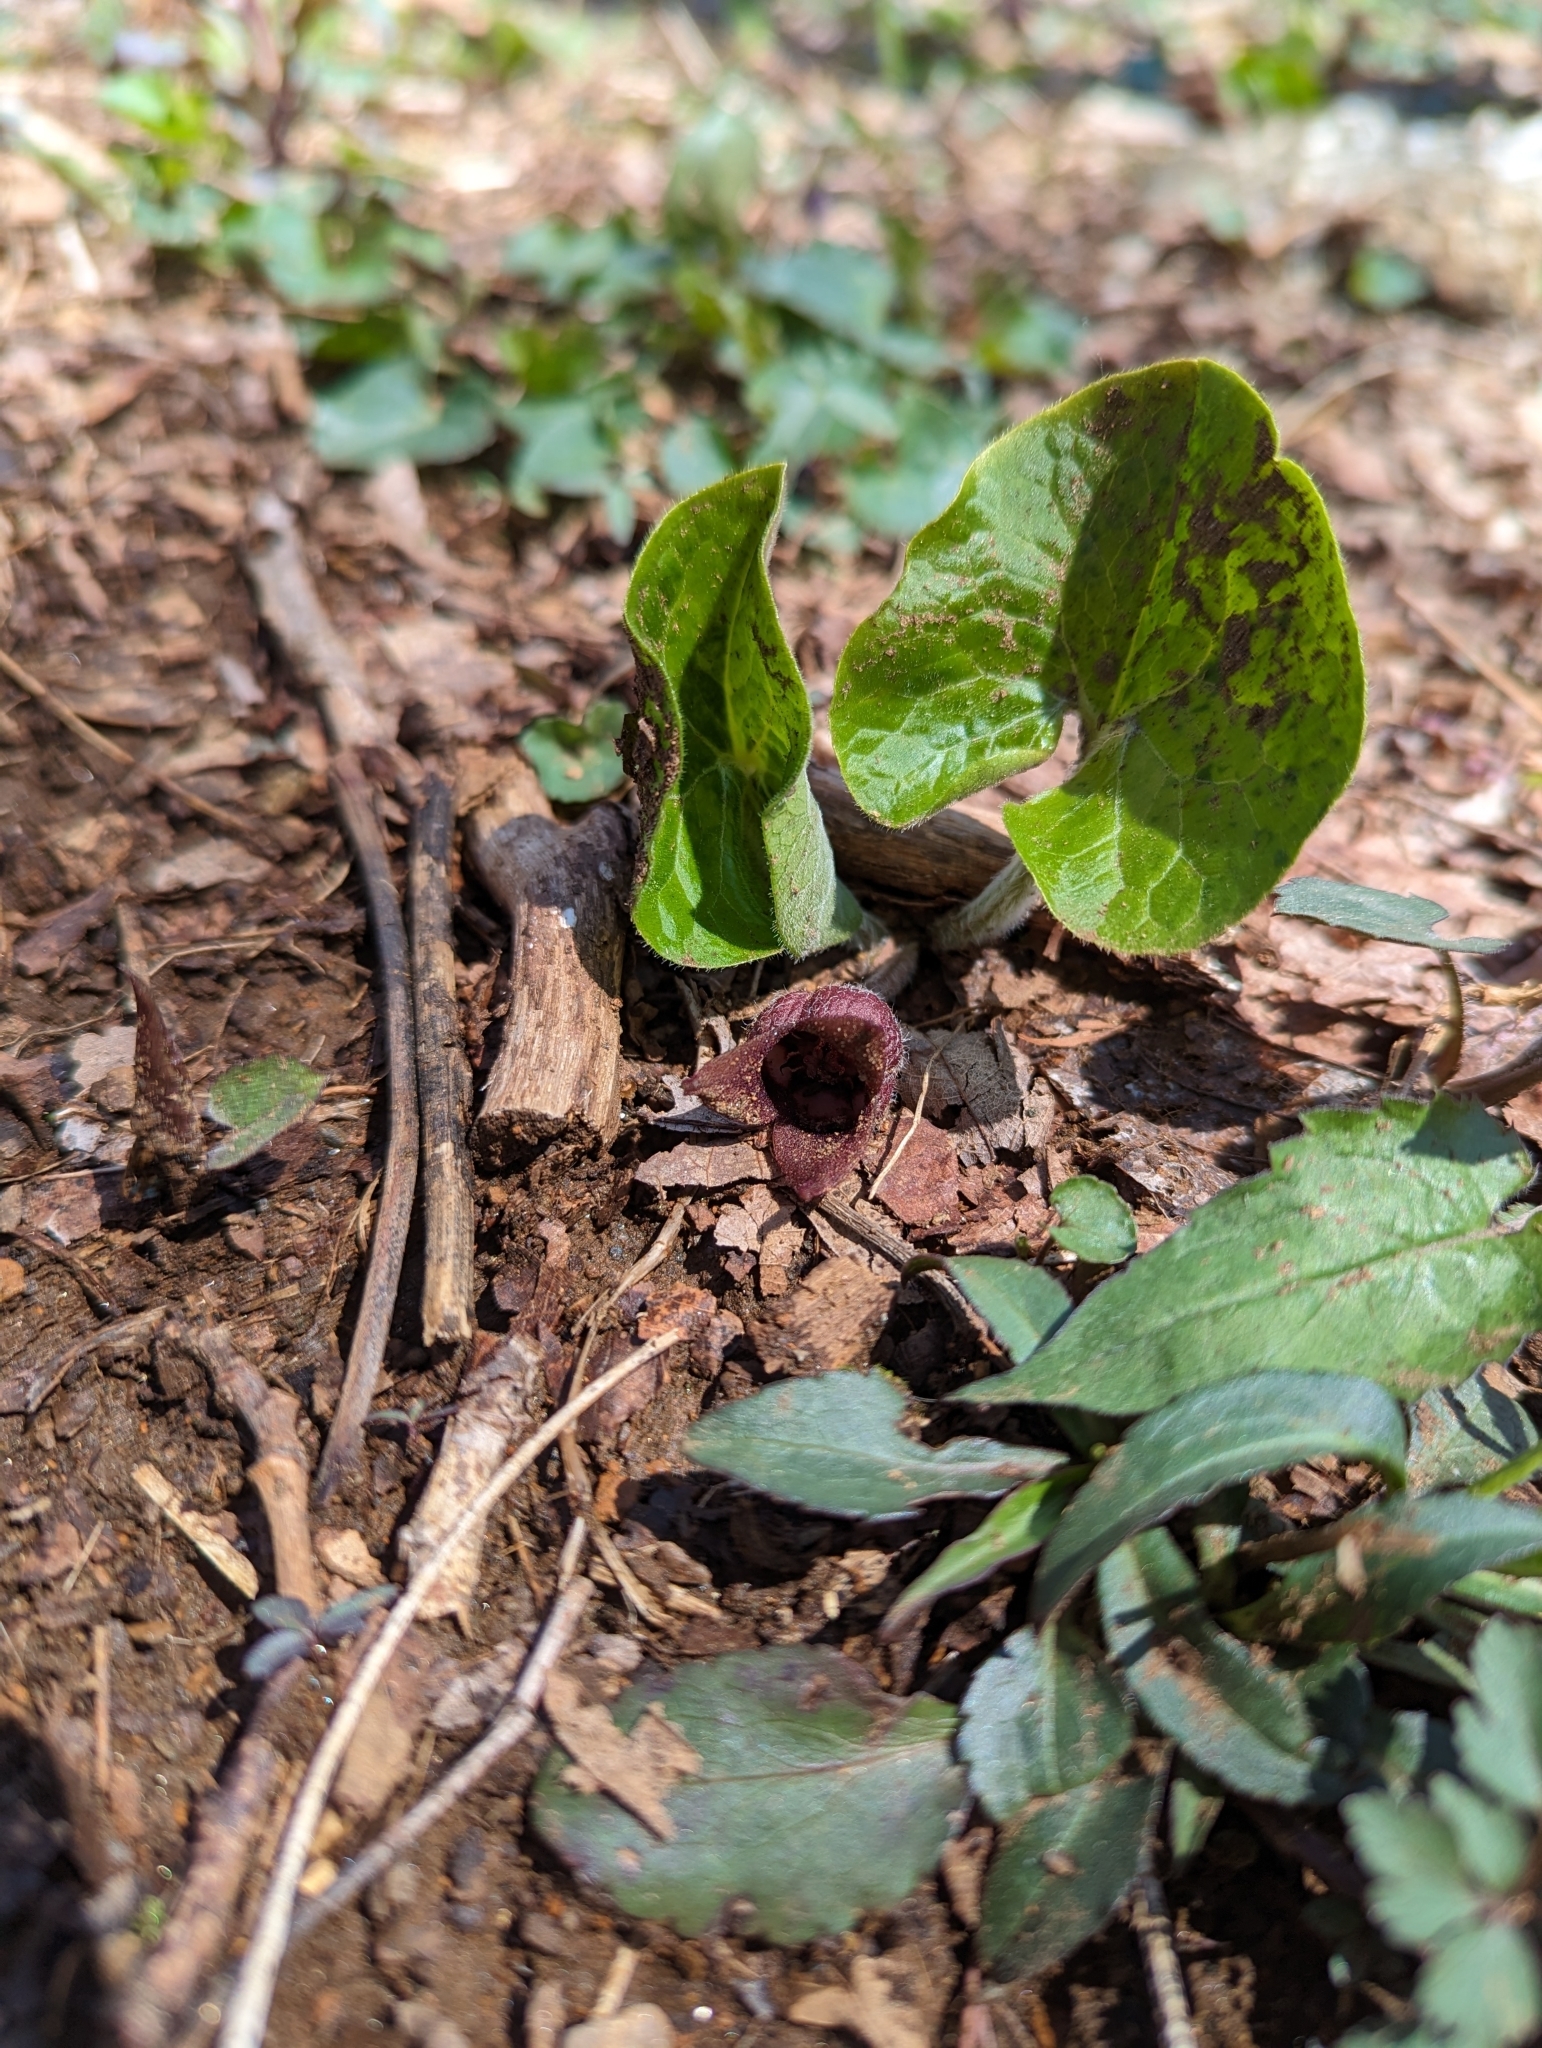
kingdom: Plantae
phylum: Tracheophyta
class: Magnoliopsida
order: Piperales
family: Aristolochiaceae
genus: Asarum
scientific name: Asarum canadense
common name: Wild ginger
